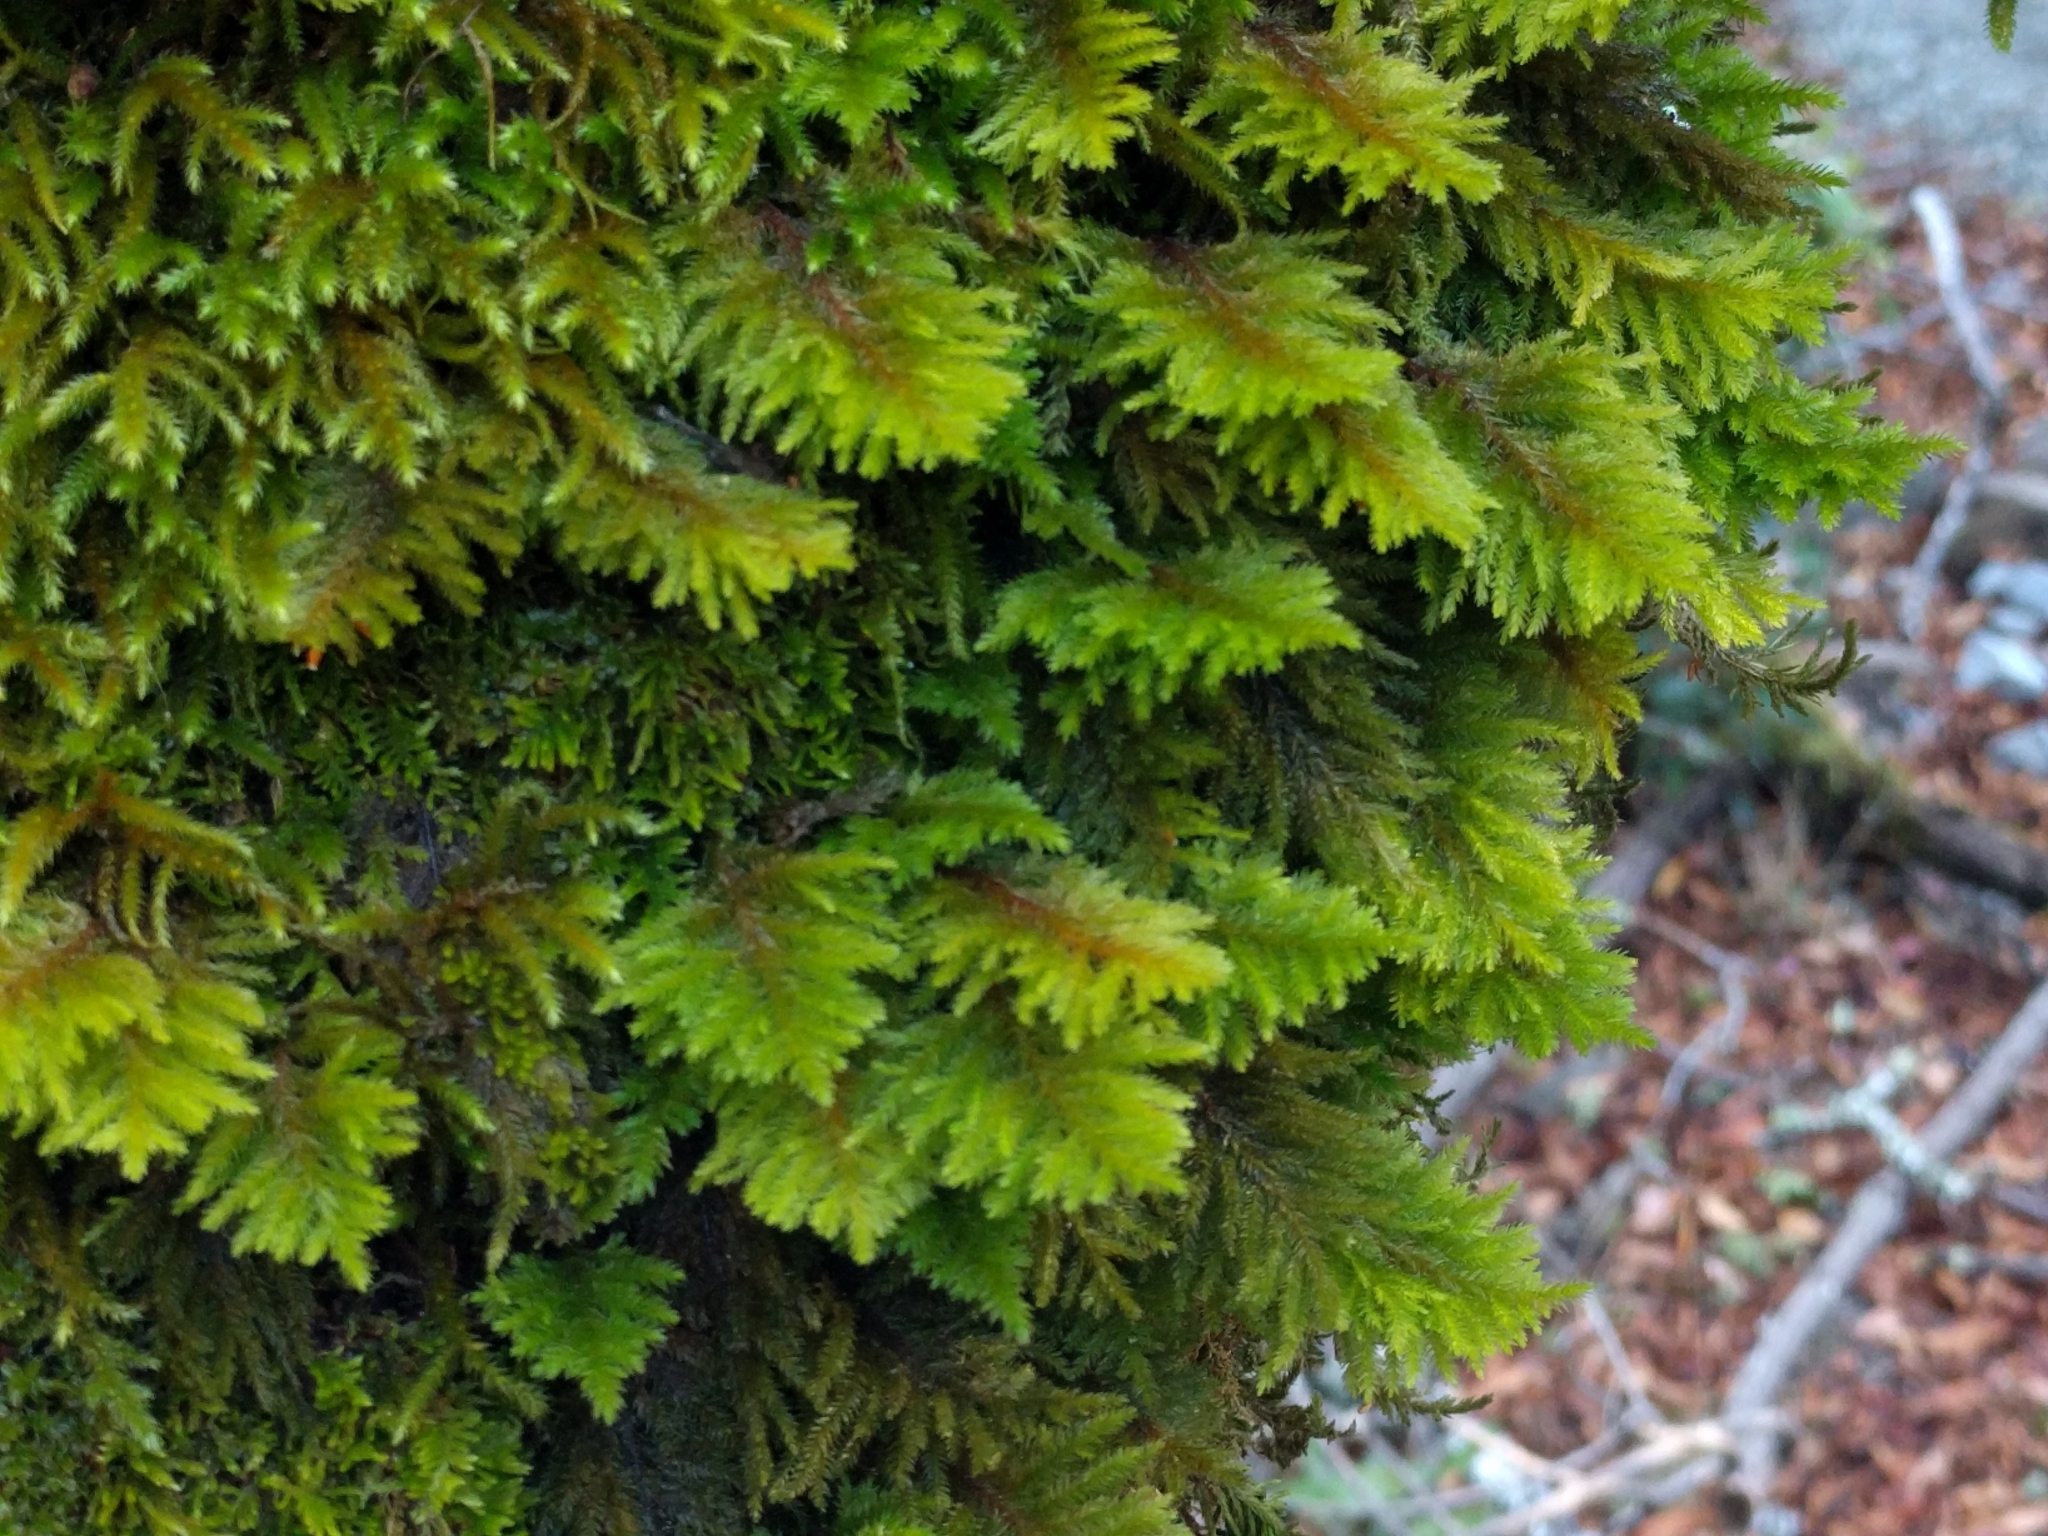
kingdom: Plantae
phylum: Bryophyta
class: Bryopsida
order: Hypnales
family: Cryphaeaceae
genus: Dendroalsia
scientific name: Dendroalsia abietina
